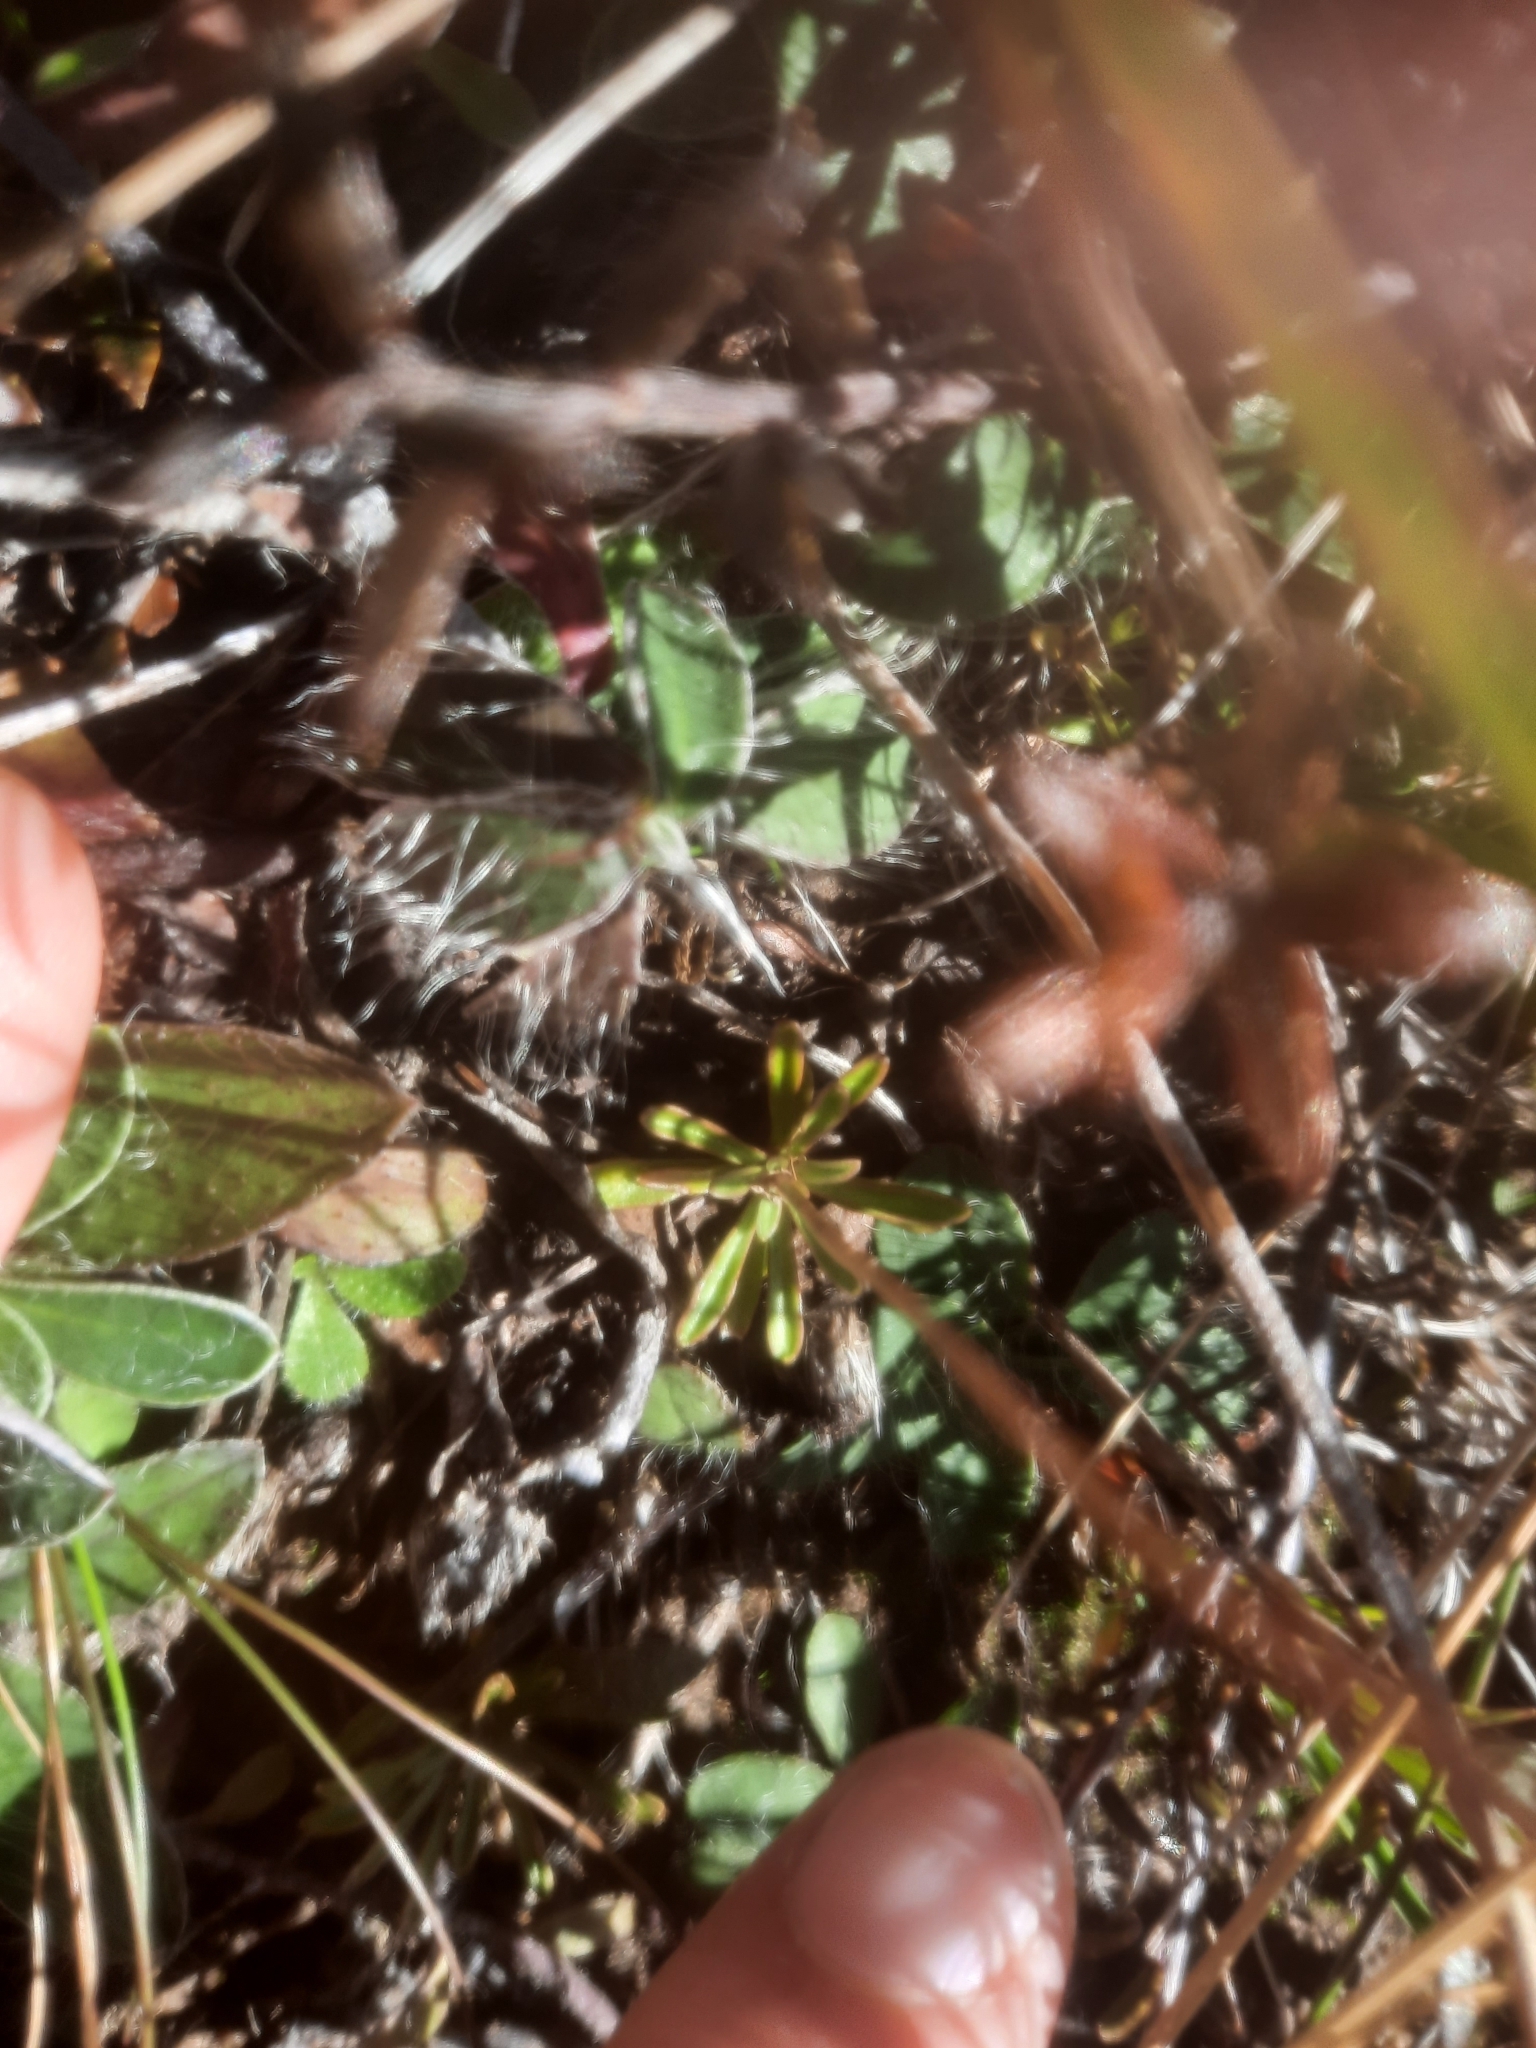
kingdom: Plantae
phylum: Tracheophyta
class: Magnoliopsida
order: Asterales
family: Campanulaceae
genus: Wahlenbergia
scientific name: Wahlenbergia albomarginata
